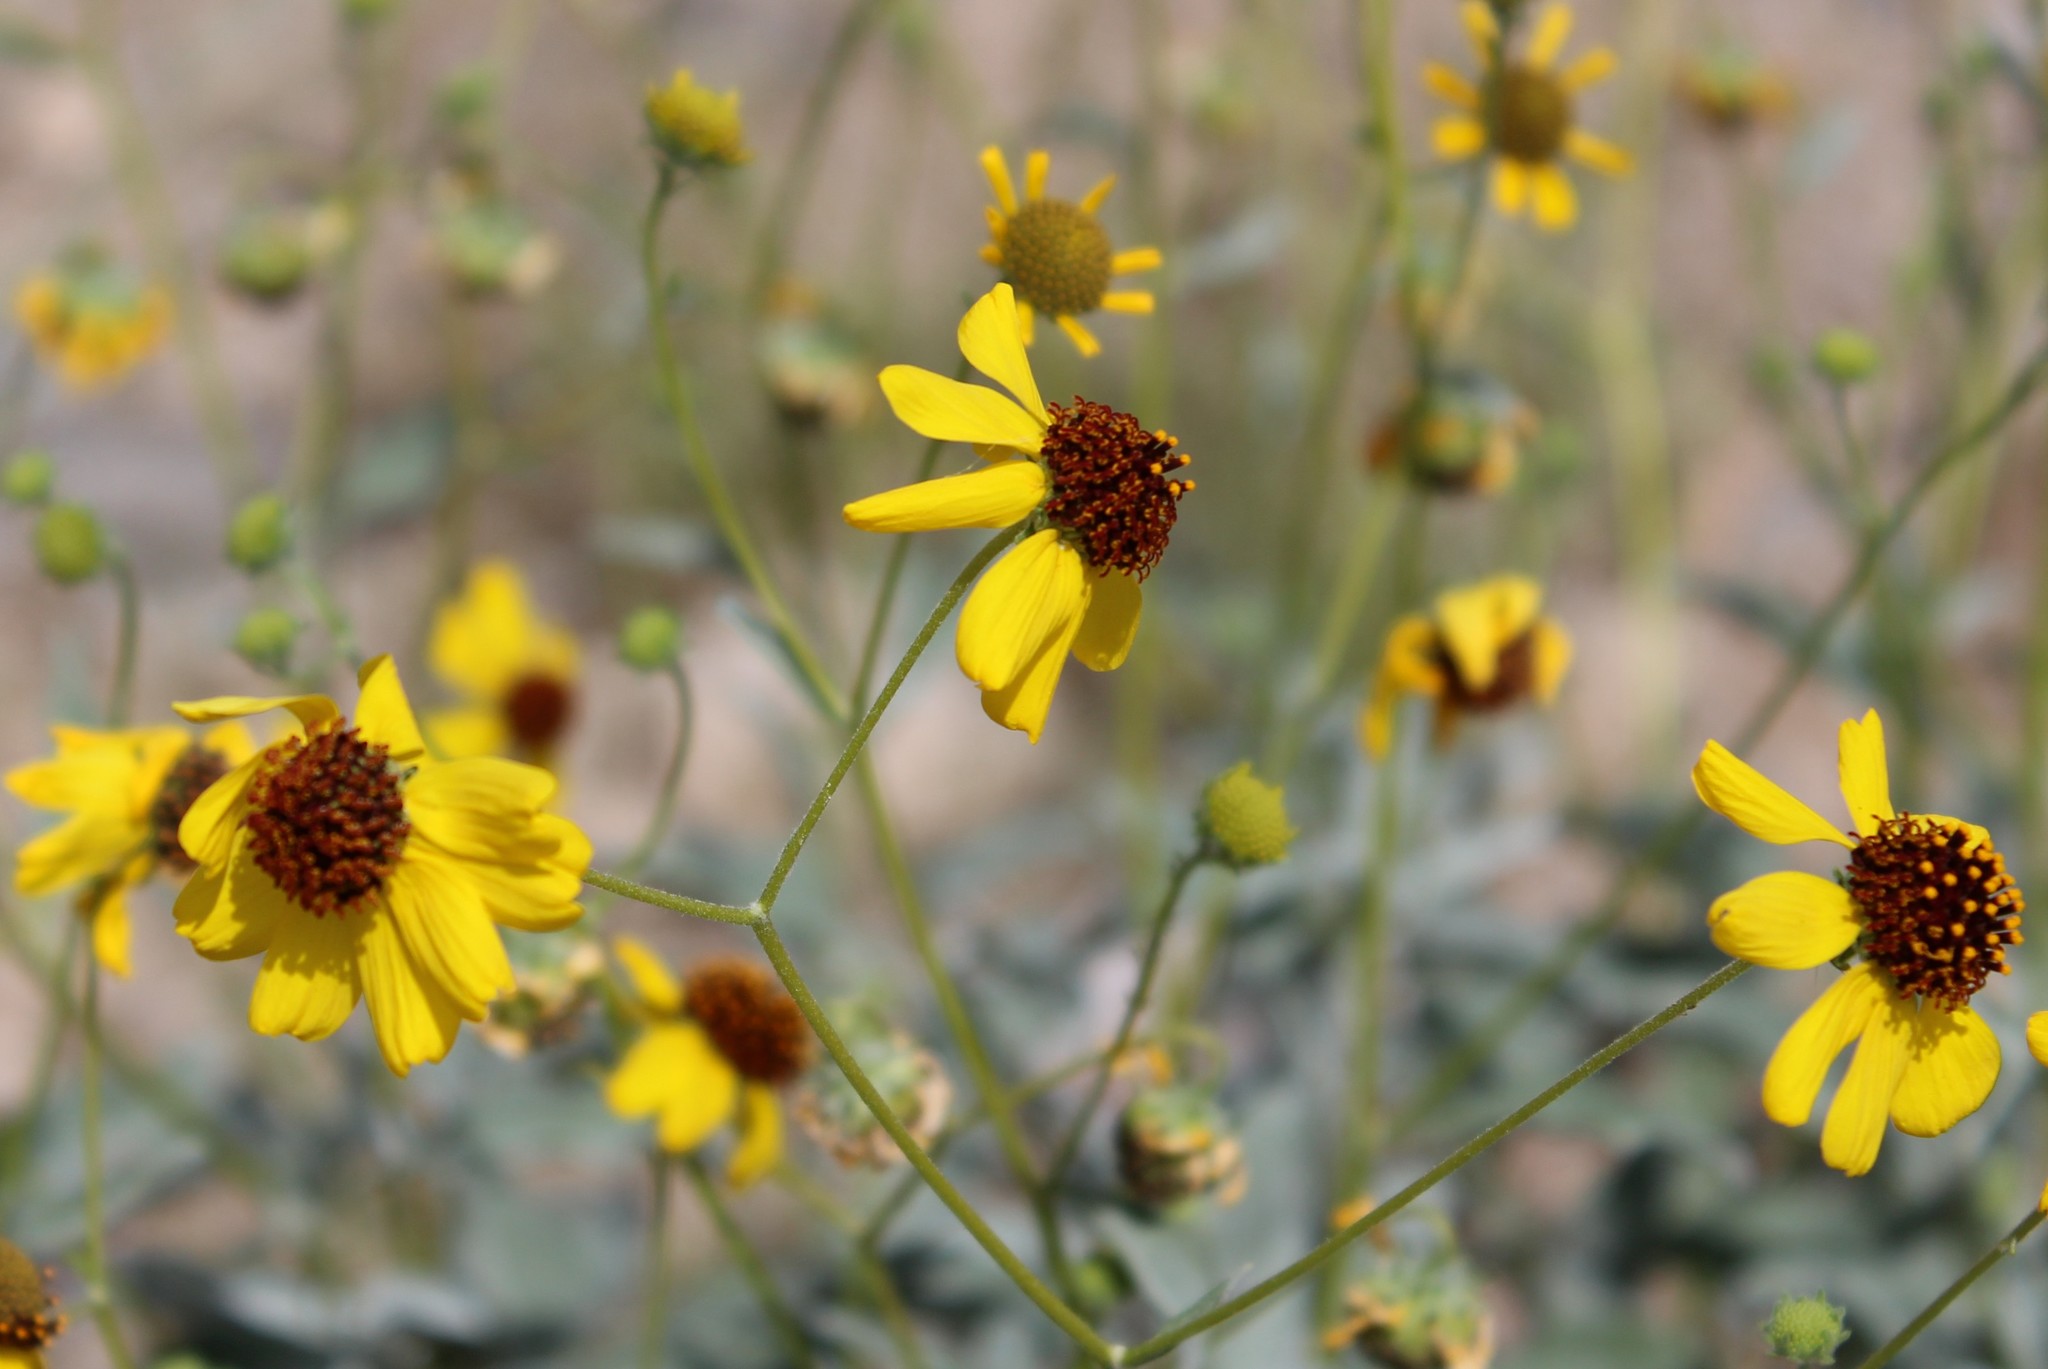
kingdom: Plantae
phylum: Tracheophyta
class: Magnoliopsida
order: Asterales
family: Asteraceae
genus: Encelia
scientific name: Encelia farinosa
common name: Brittlebush
